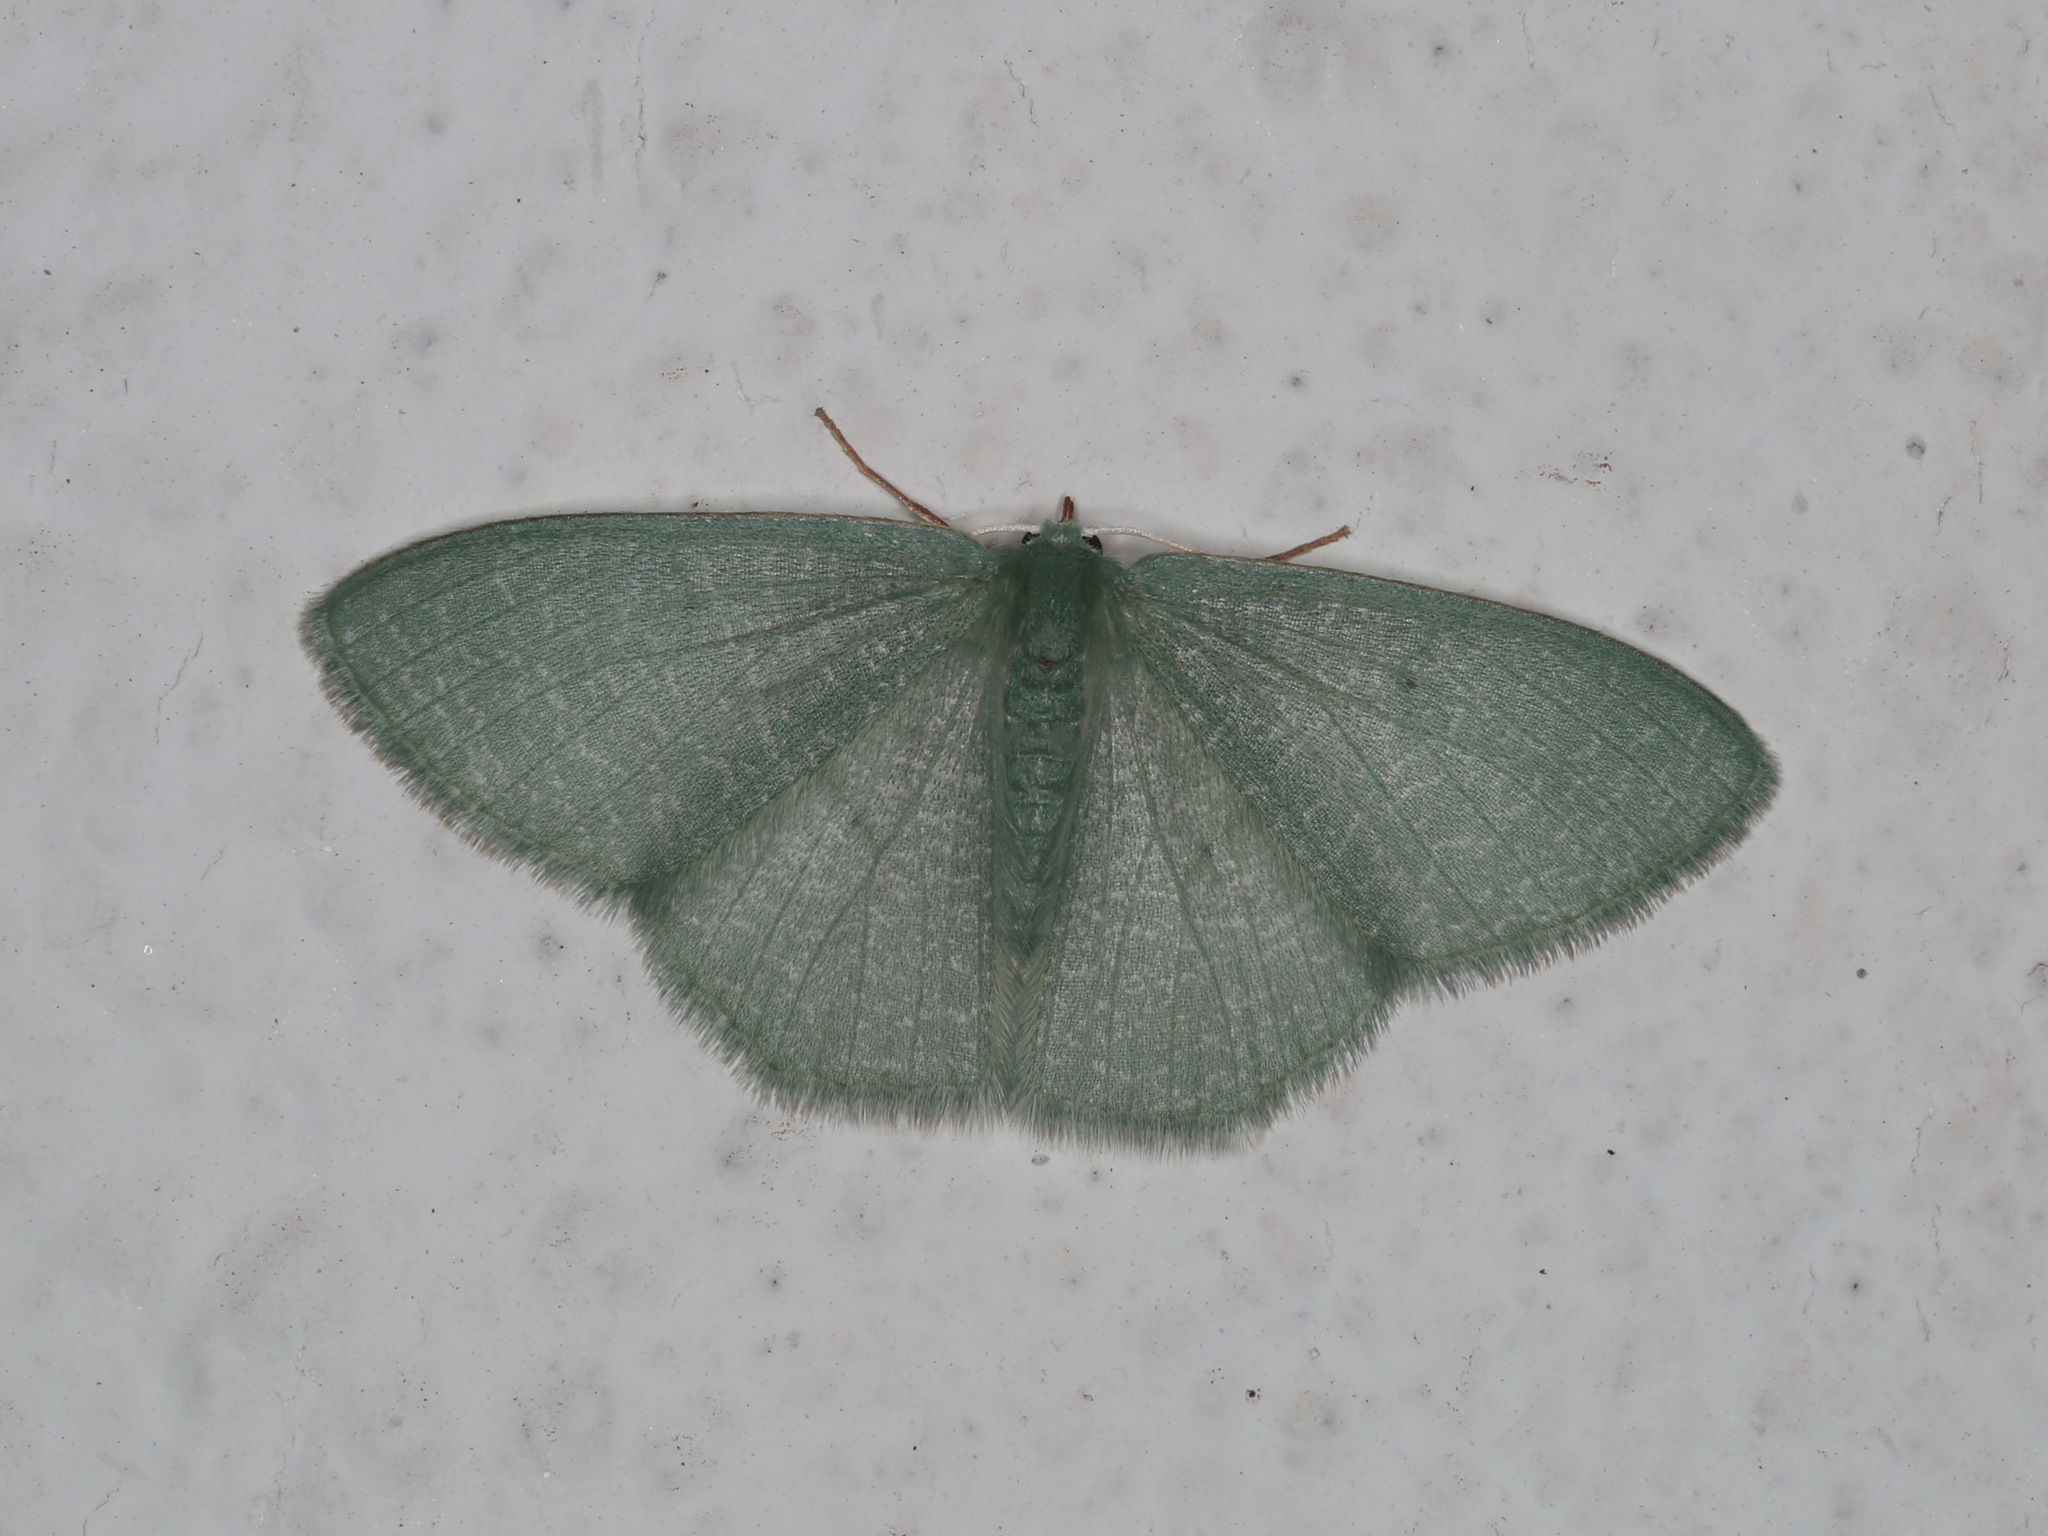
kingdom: Animalia
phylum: Arthropoda
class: Insecta
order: Lepidoptera
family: Geometridae
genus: Prasinocyma
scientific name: Prasinocyma vermicularia
